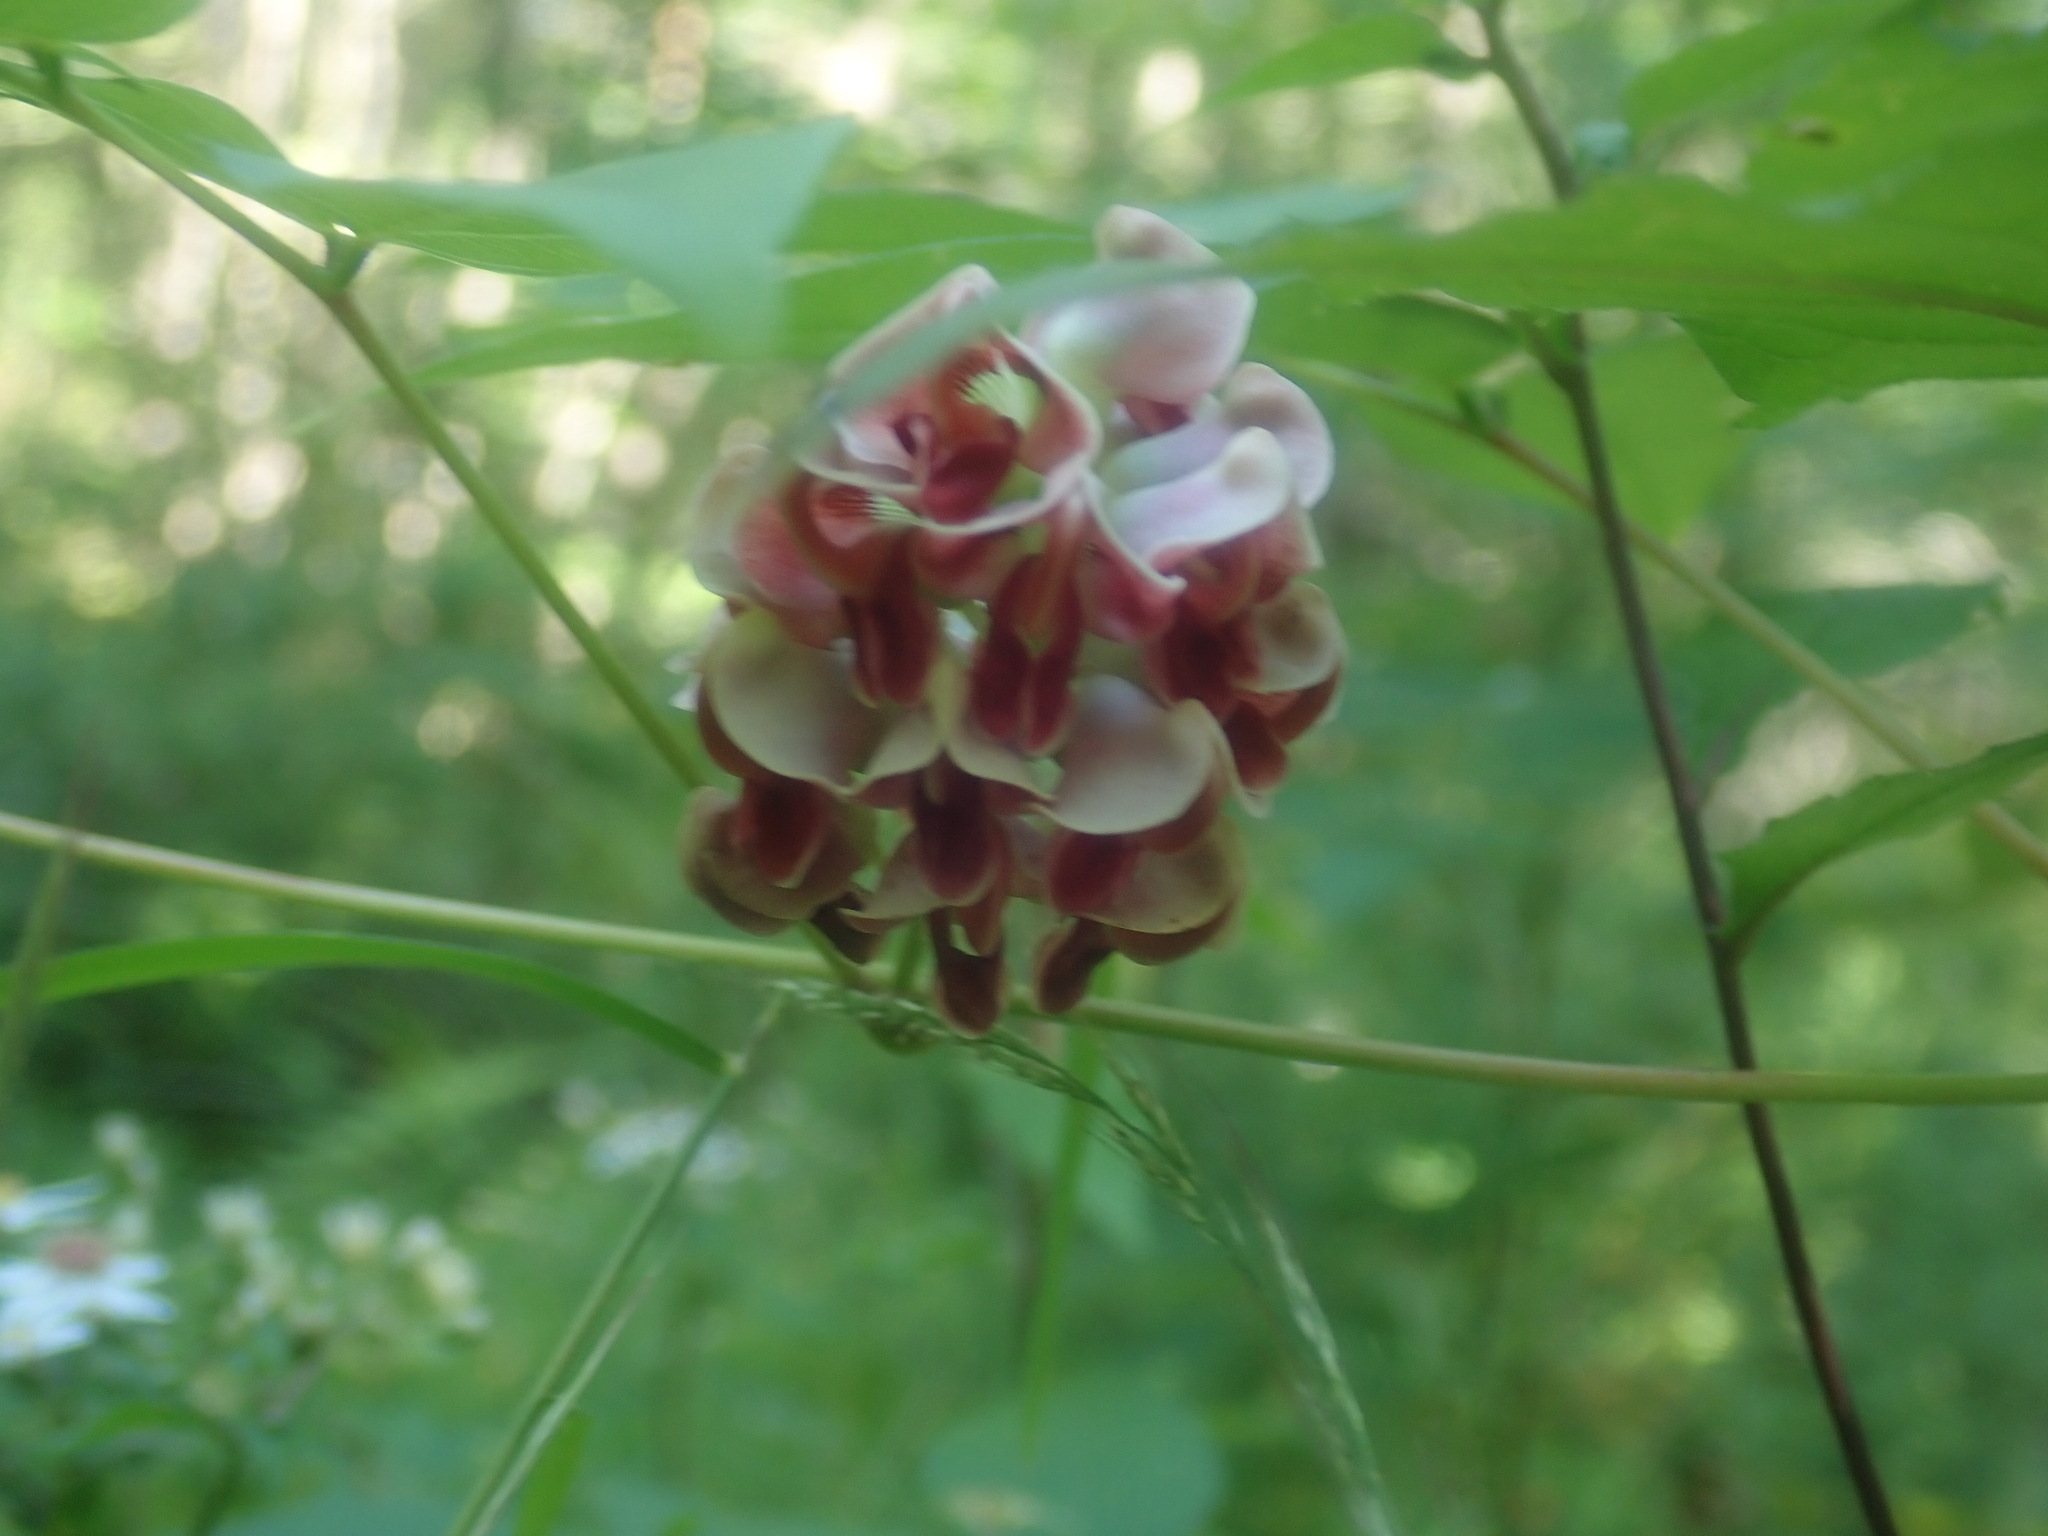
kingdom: Plantae
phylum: Tracheophyta
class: Magnoliopsida
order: Fabales
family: Fabaceae
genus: Apios
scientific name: Apios americana
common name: American potato-bean
